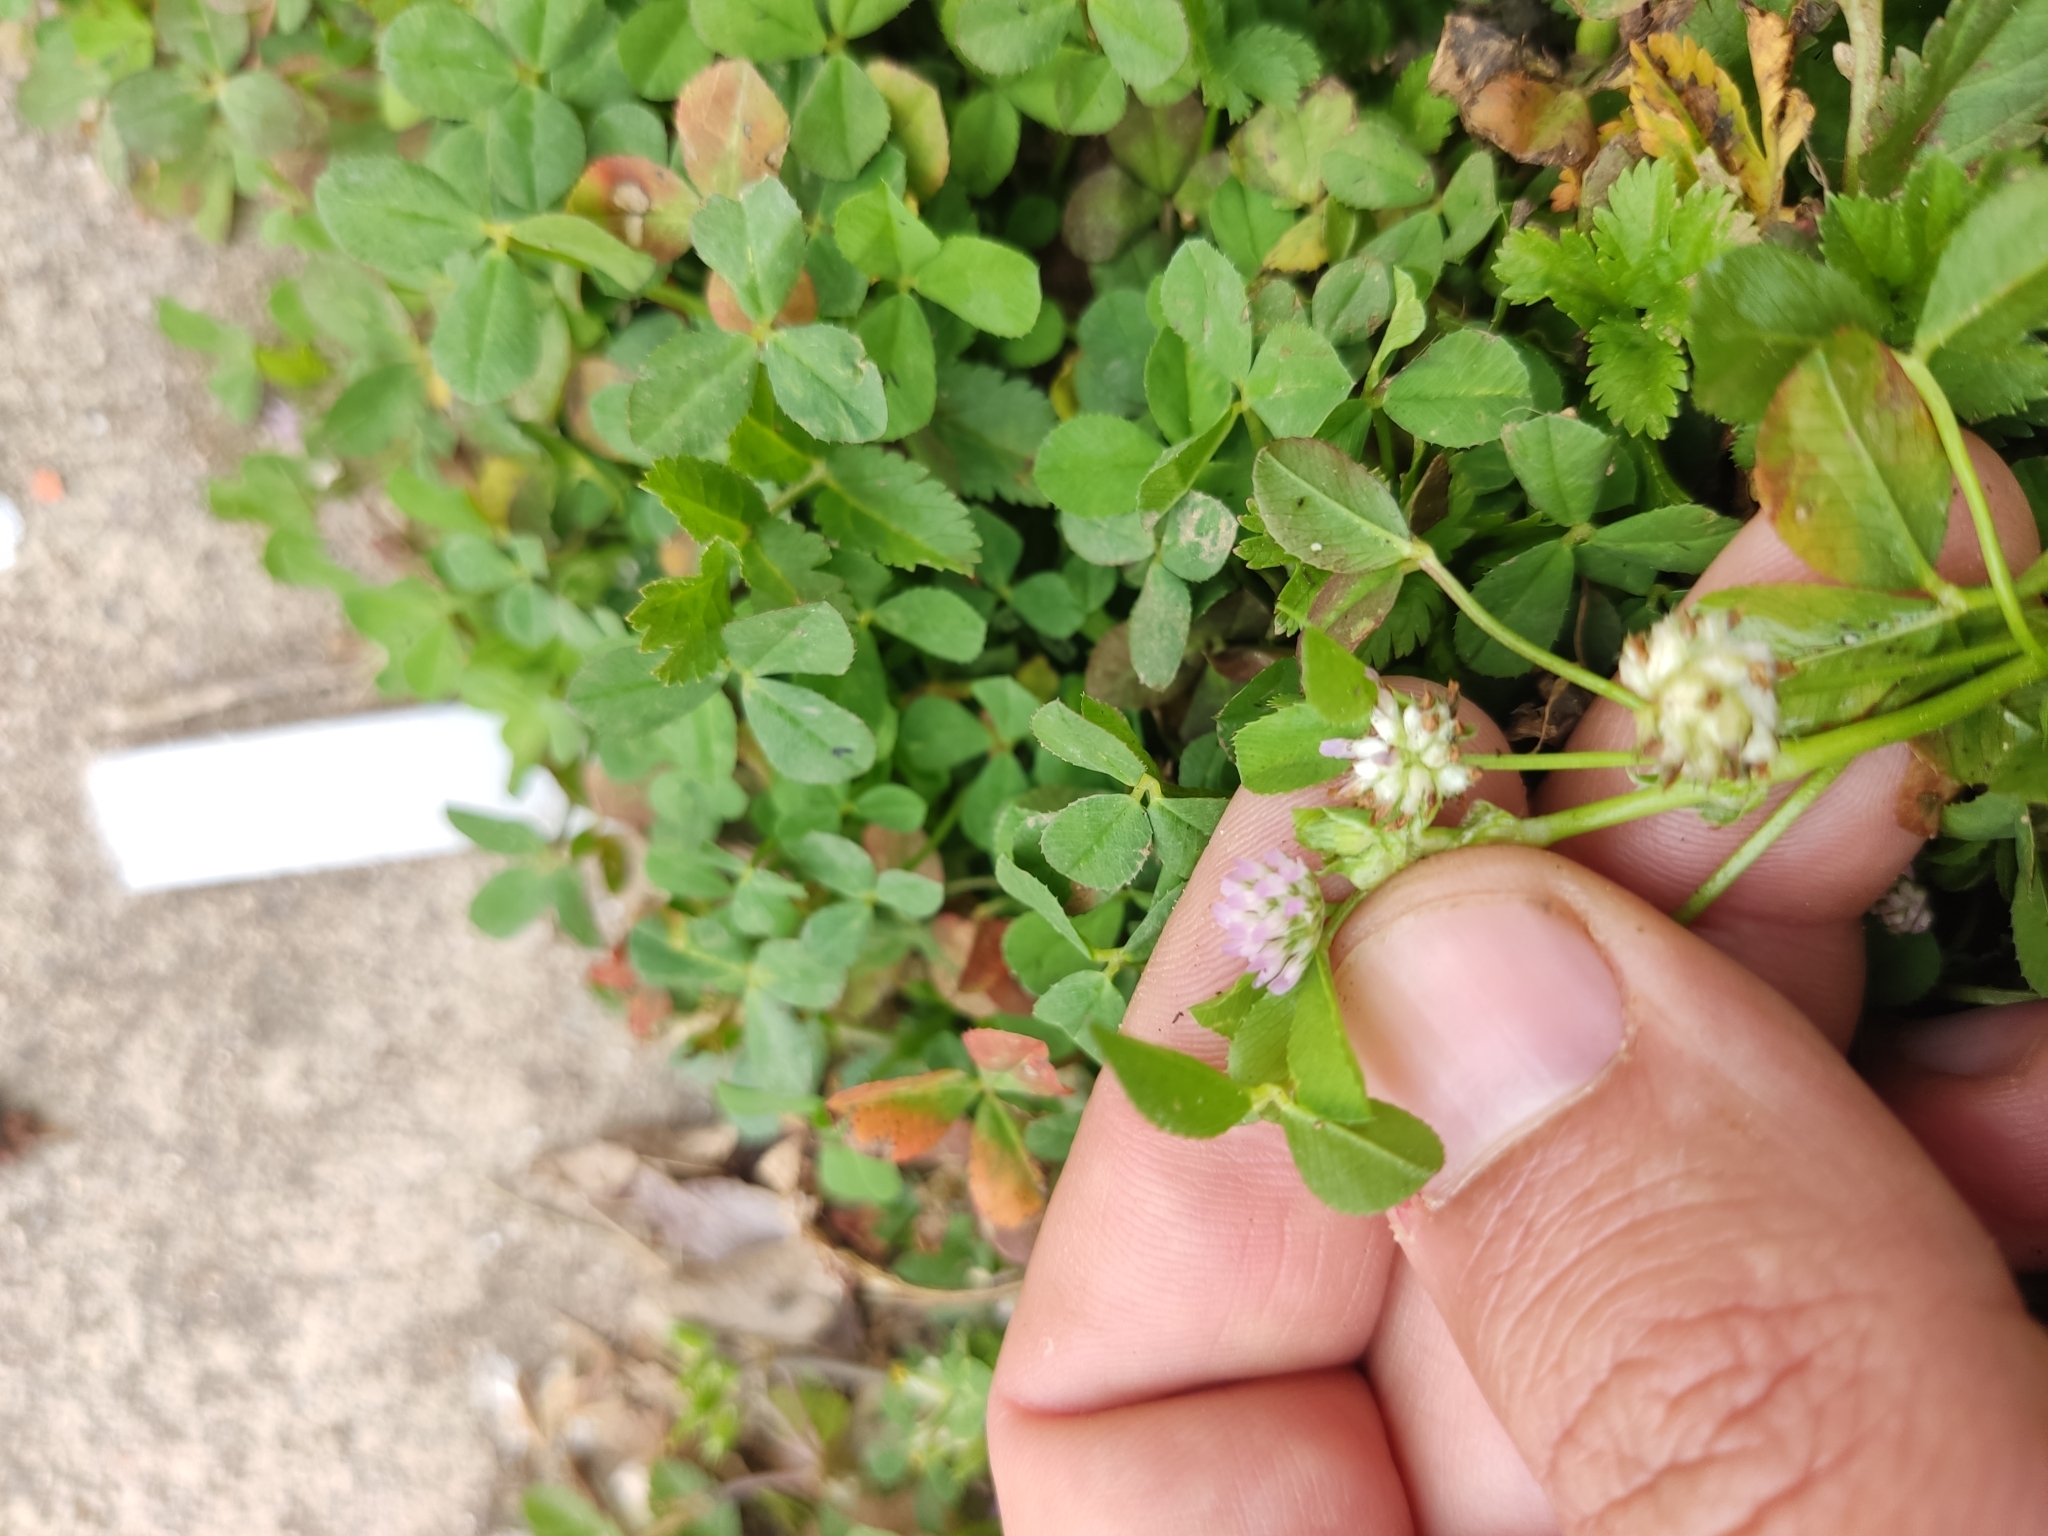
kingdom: Plantae
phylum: Tracheophyta
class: Magnoliopsida
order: Fabales
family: Fabaceae
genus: Trifolium
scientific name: Trifolium tomentosum
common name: Woolly clover
